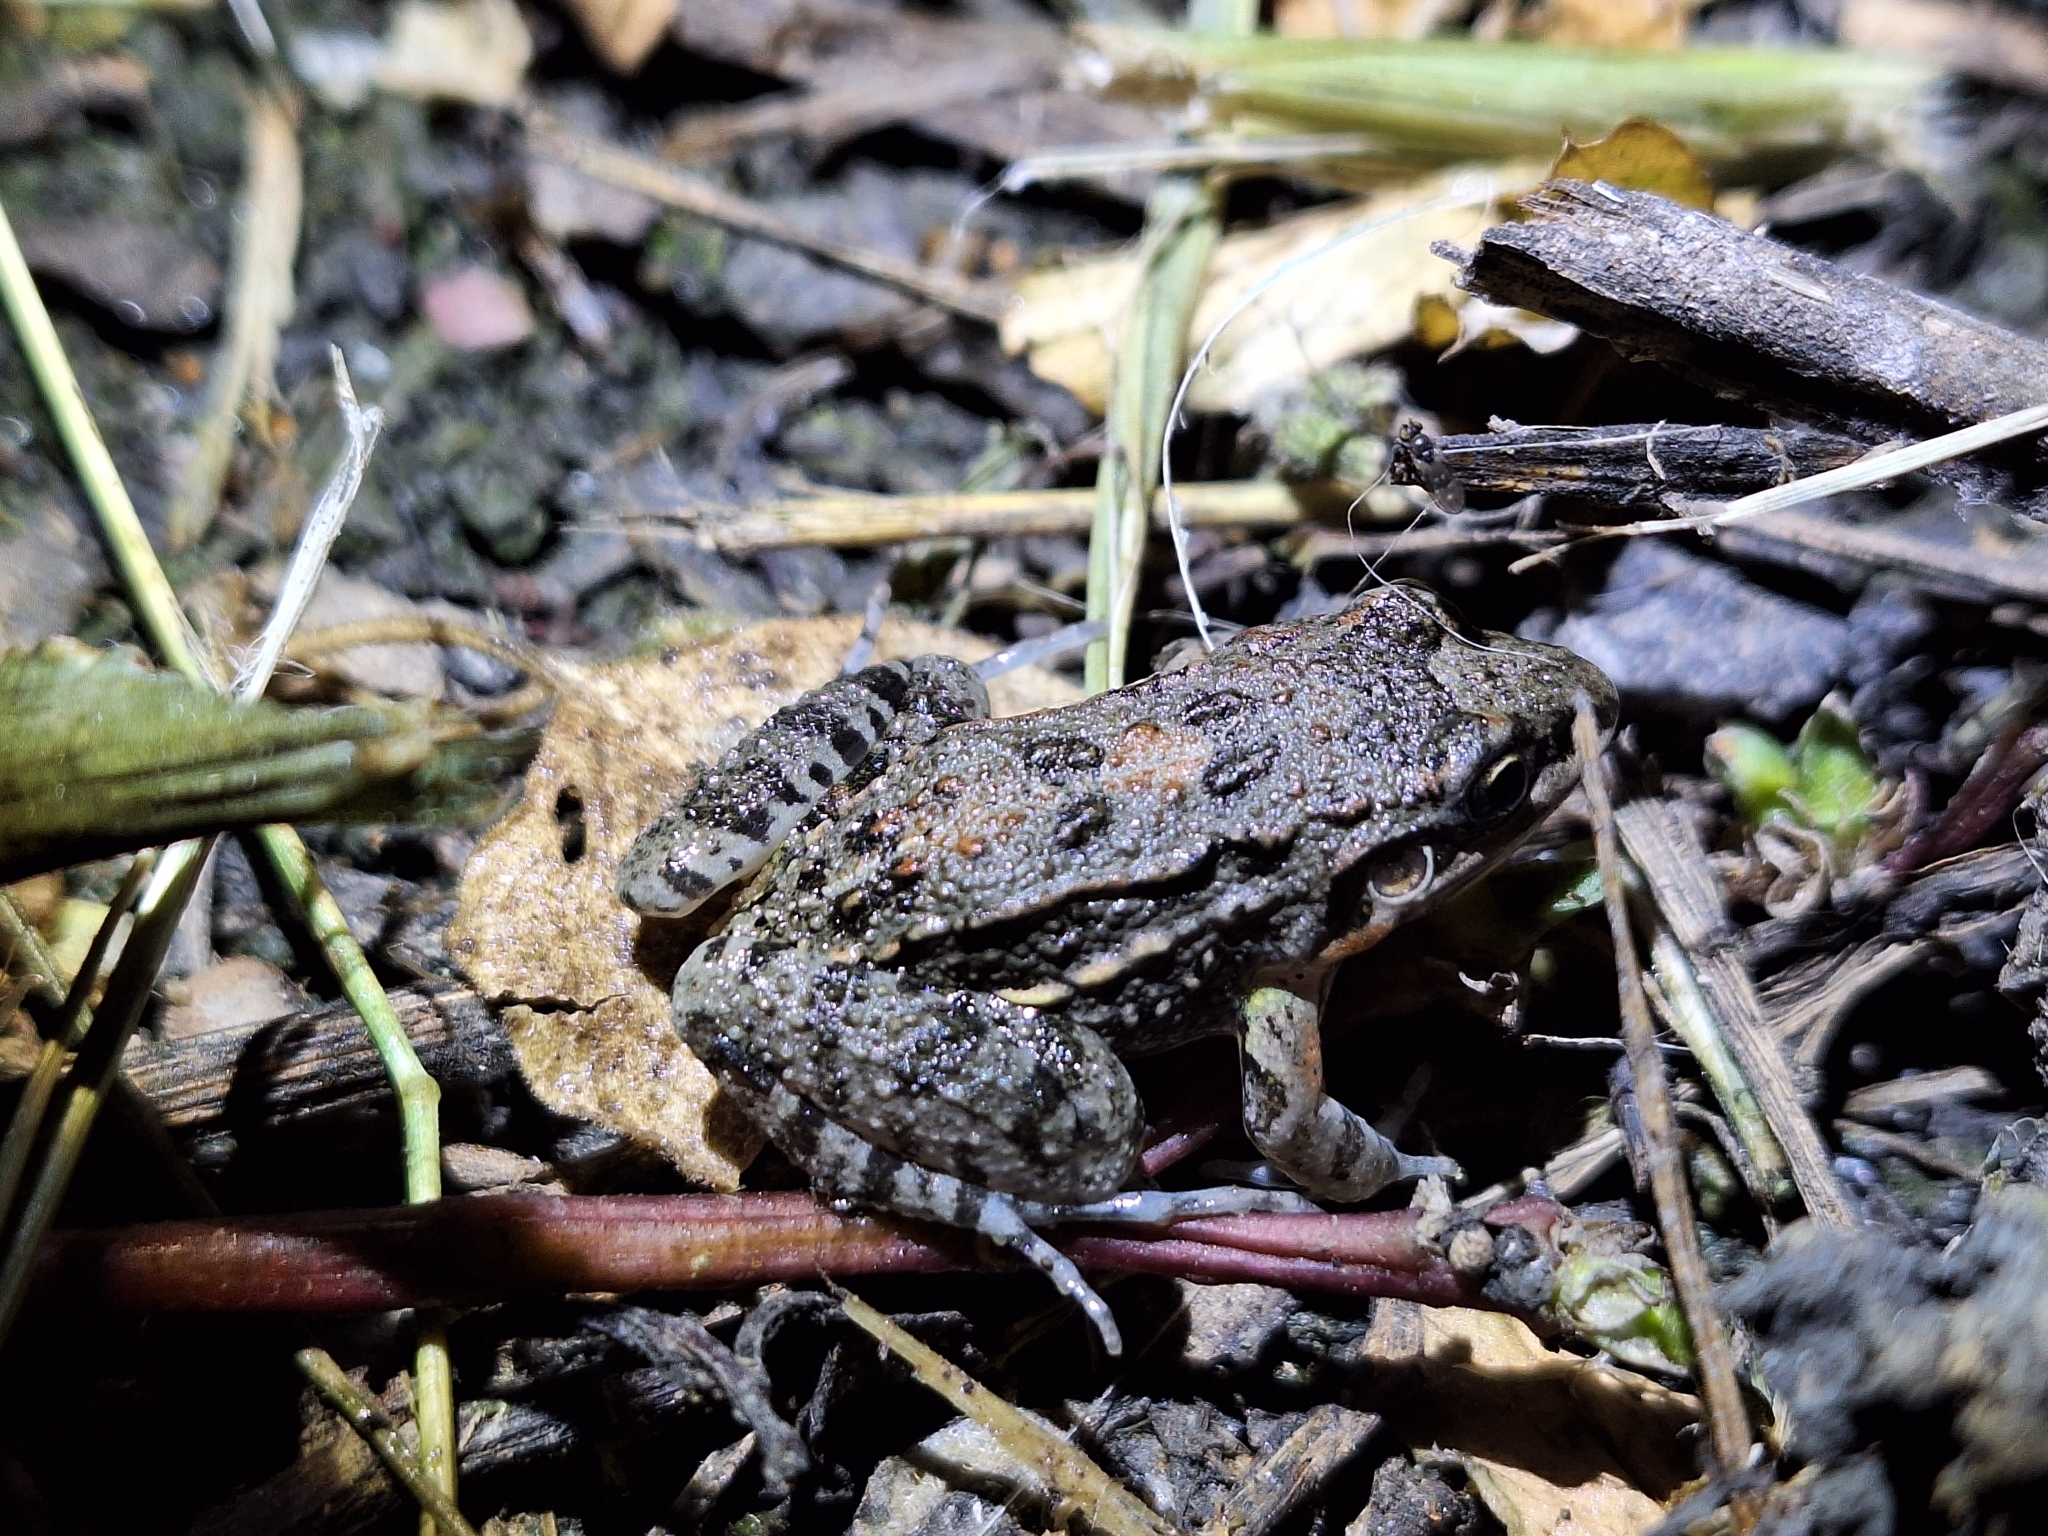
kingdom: Animalia
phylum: Chordata
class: Amphibia
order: Anura
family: Leptodactylidae
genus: Leptodactylus
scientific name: Leptodactylus latinasus
